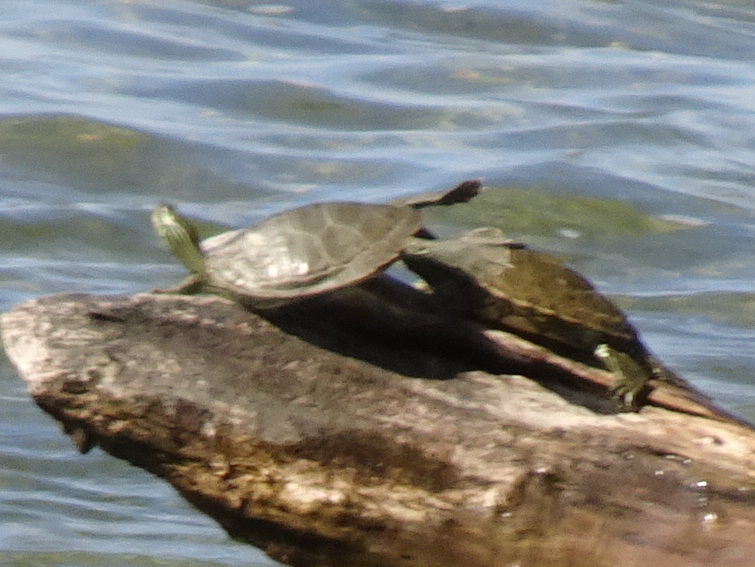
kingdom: Animalia
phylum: Chordata
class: Testudines
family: Emydidae
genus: Graptemys
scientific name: Graptemys geographica
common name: Common map turtle
